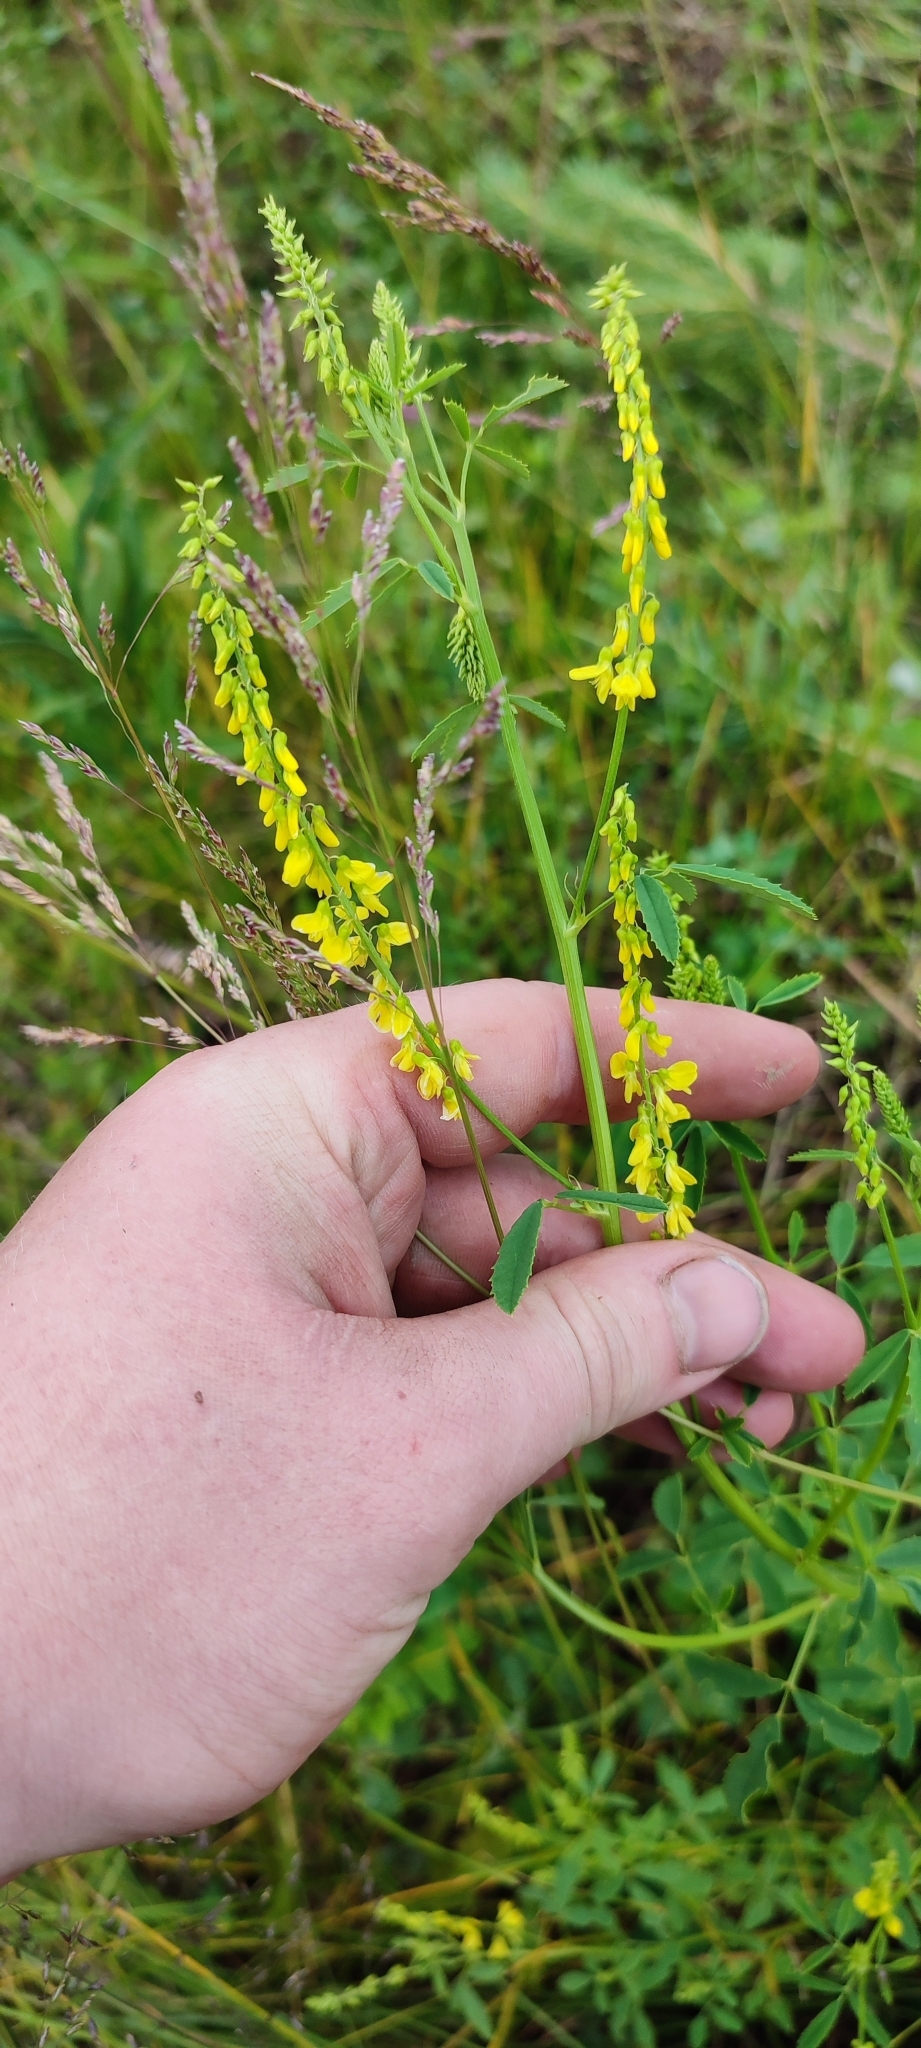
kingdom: Plantae
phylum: Tracheophyta
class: Magnoliopsida
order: Fabales
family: Fabaceae
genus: Melilotus
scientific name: Melilotus officinalis
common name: Sweetclover
